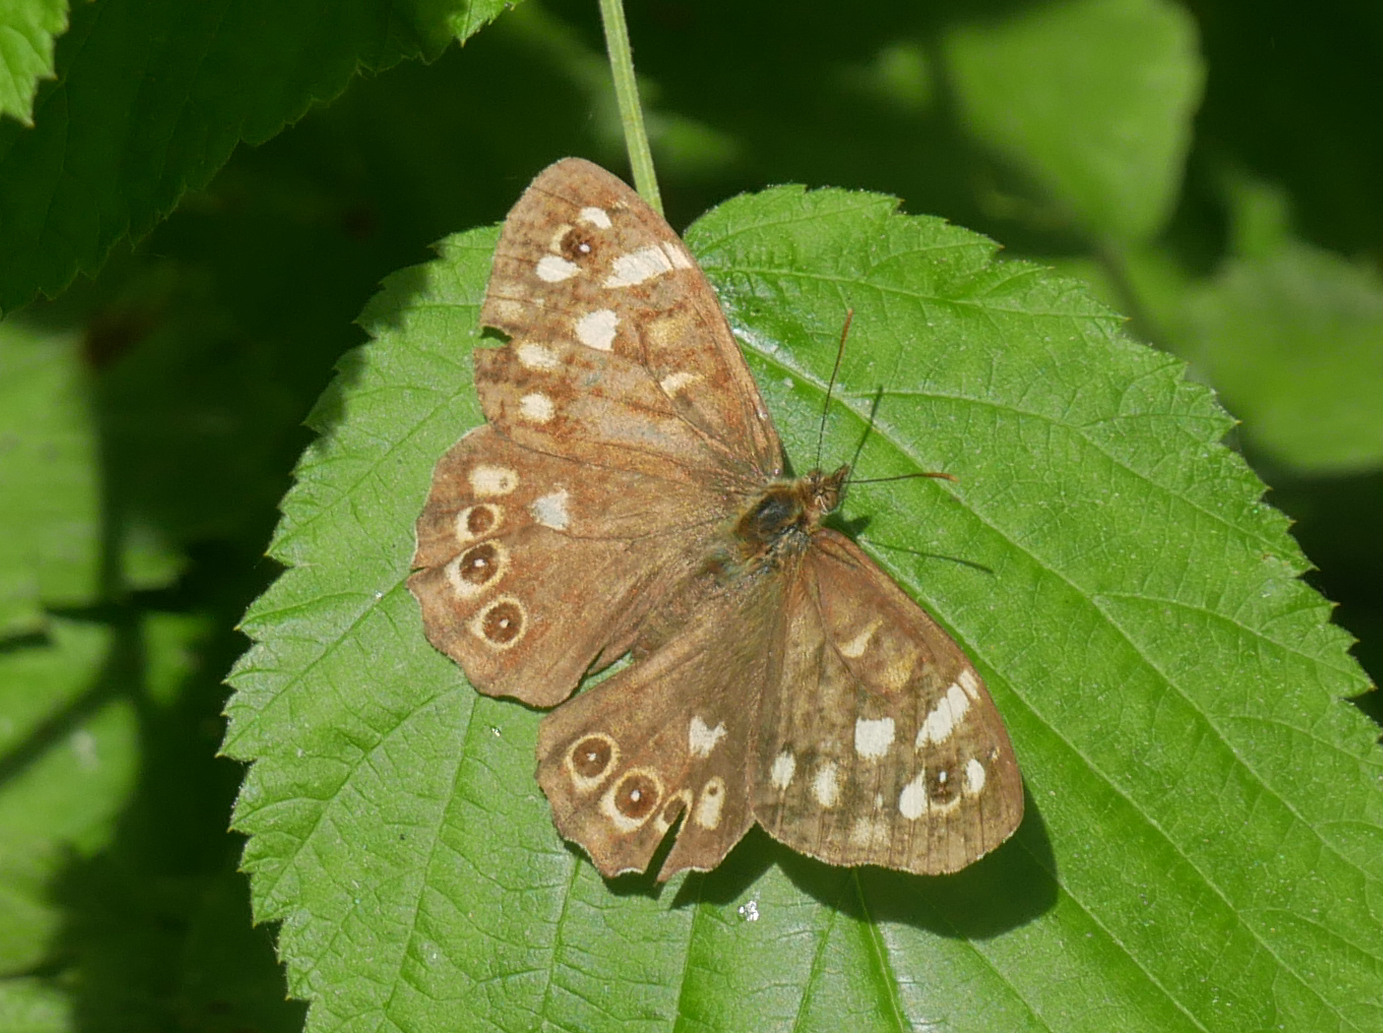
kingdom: Animalia
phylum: Arthropoda
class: Insecta
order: Lepidoptera
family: Nymphalidae
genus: Pararge
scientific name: Pararge aegeria
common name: Speckled wood
